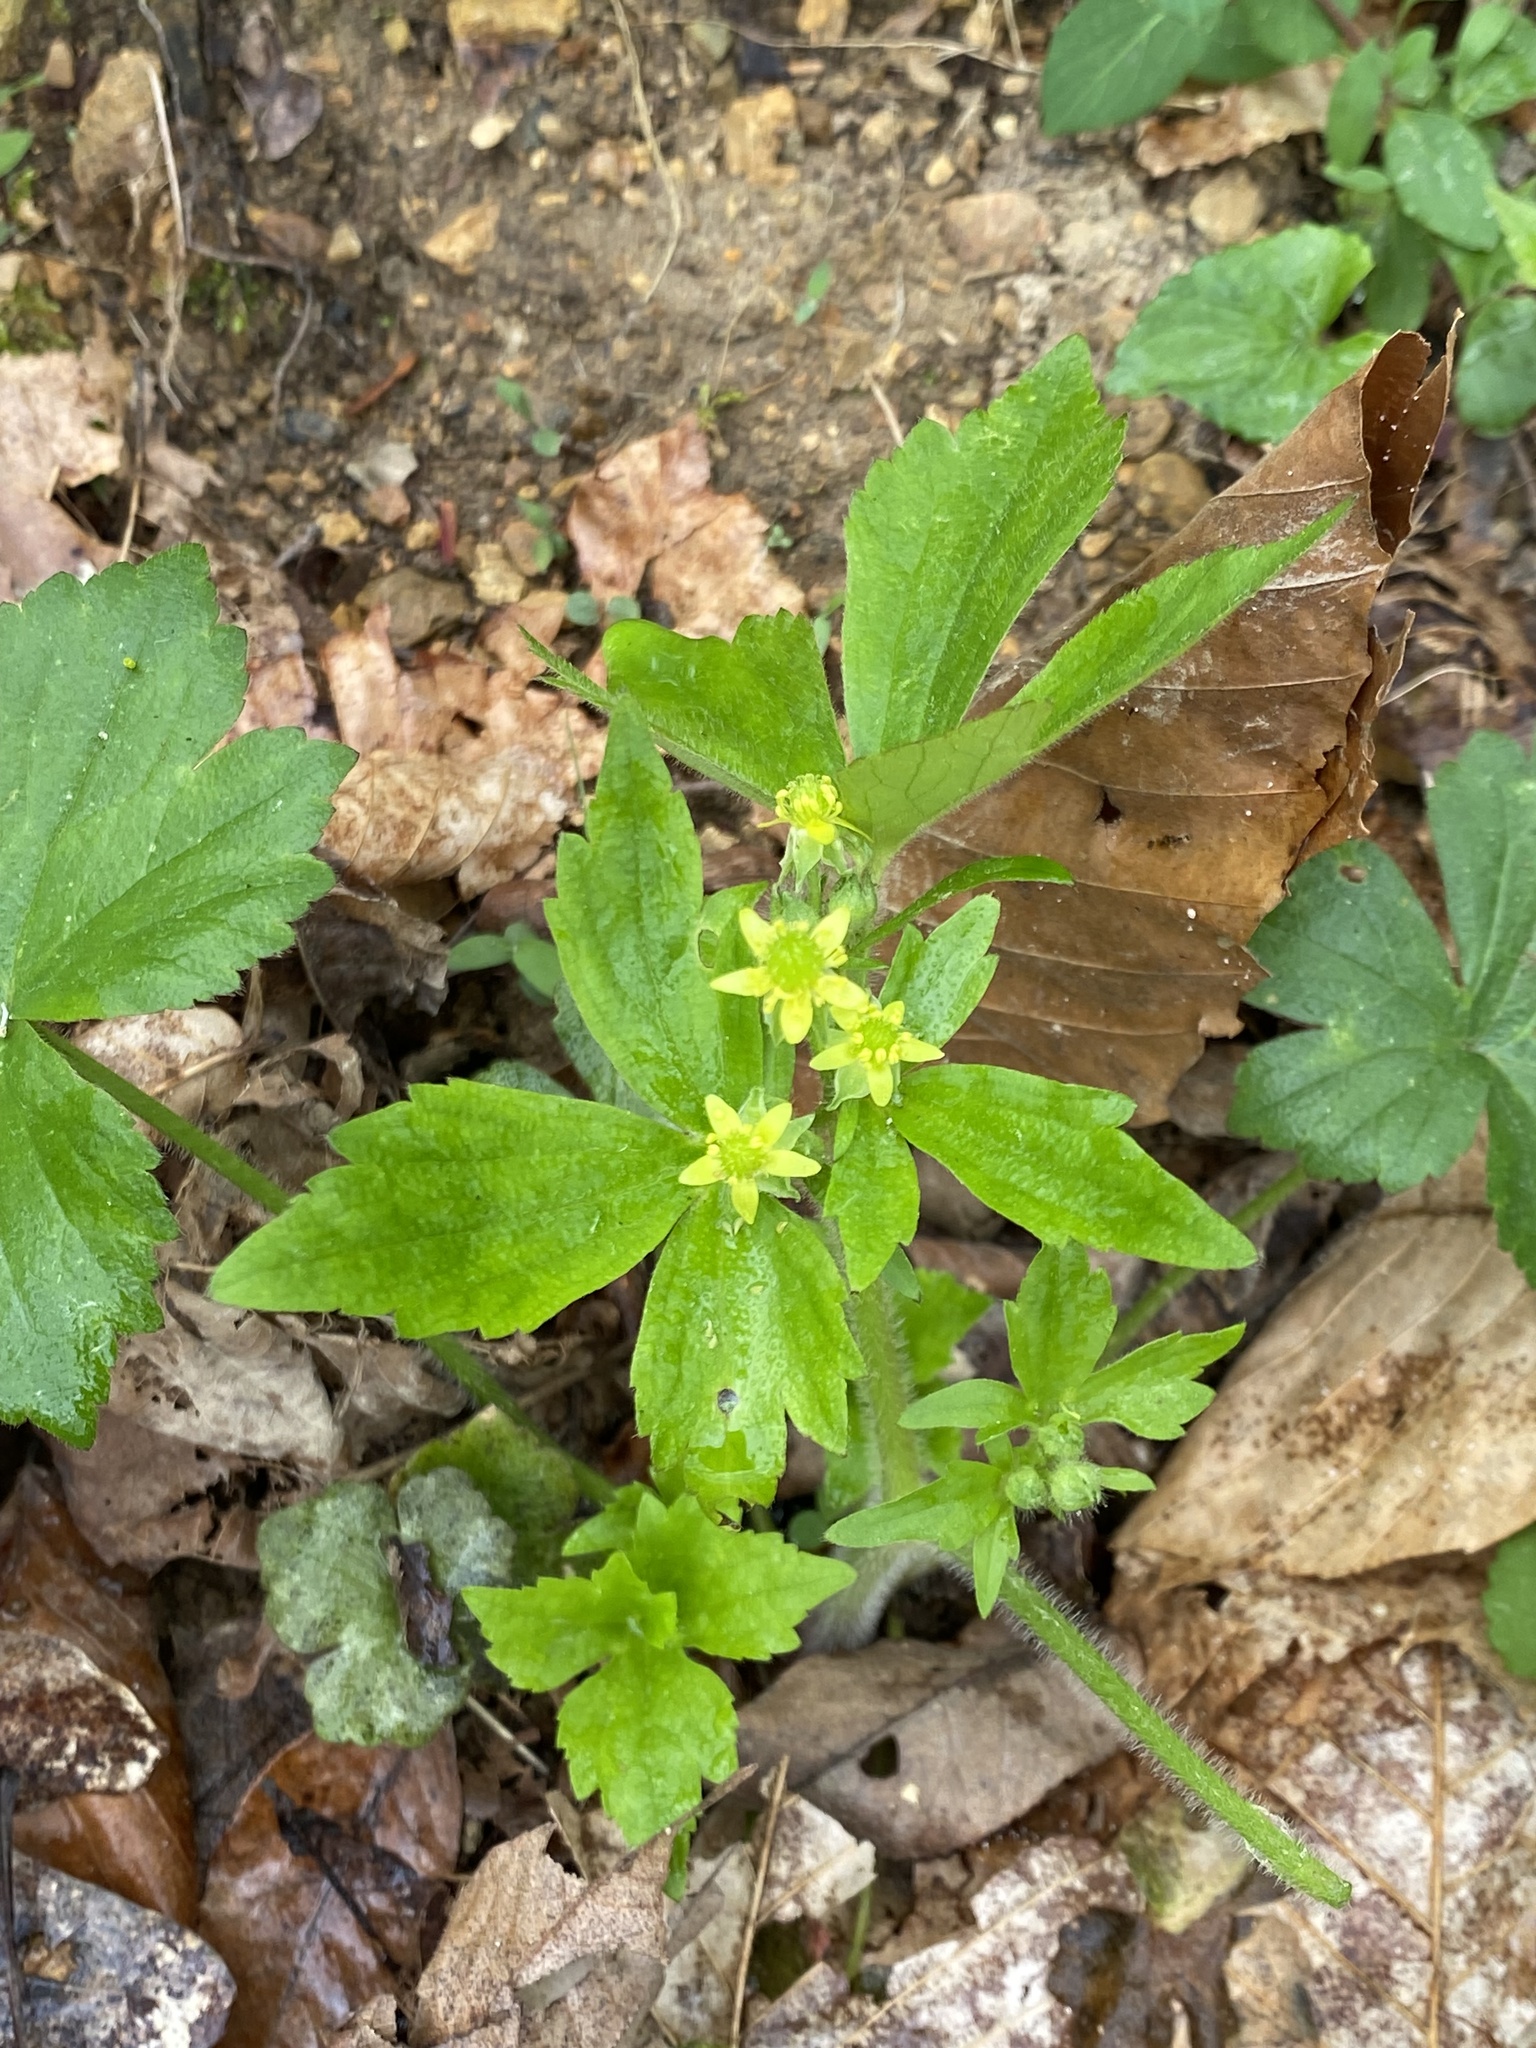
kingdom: Plantae
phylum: Tracheophyta
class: Magnoliopsida
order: Ranunculales
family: Ranunculaceae
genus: Ranunculus
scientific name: Ranunculus recurvatus
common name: Blisterwort
